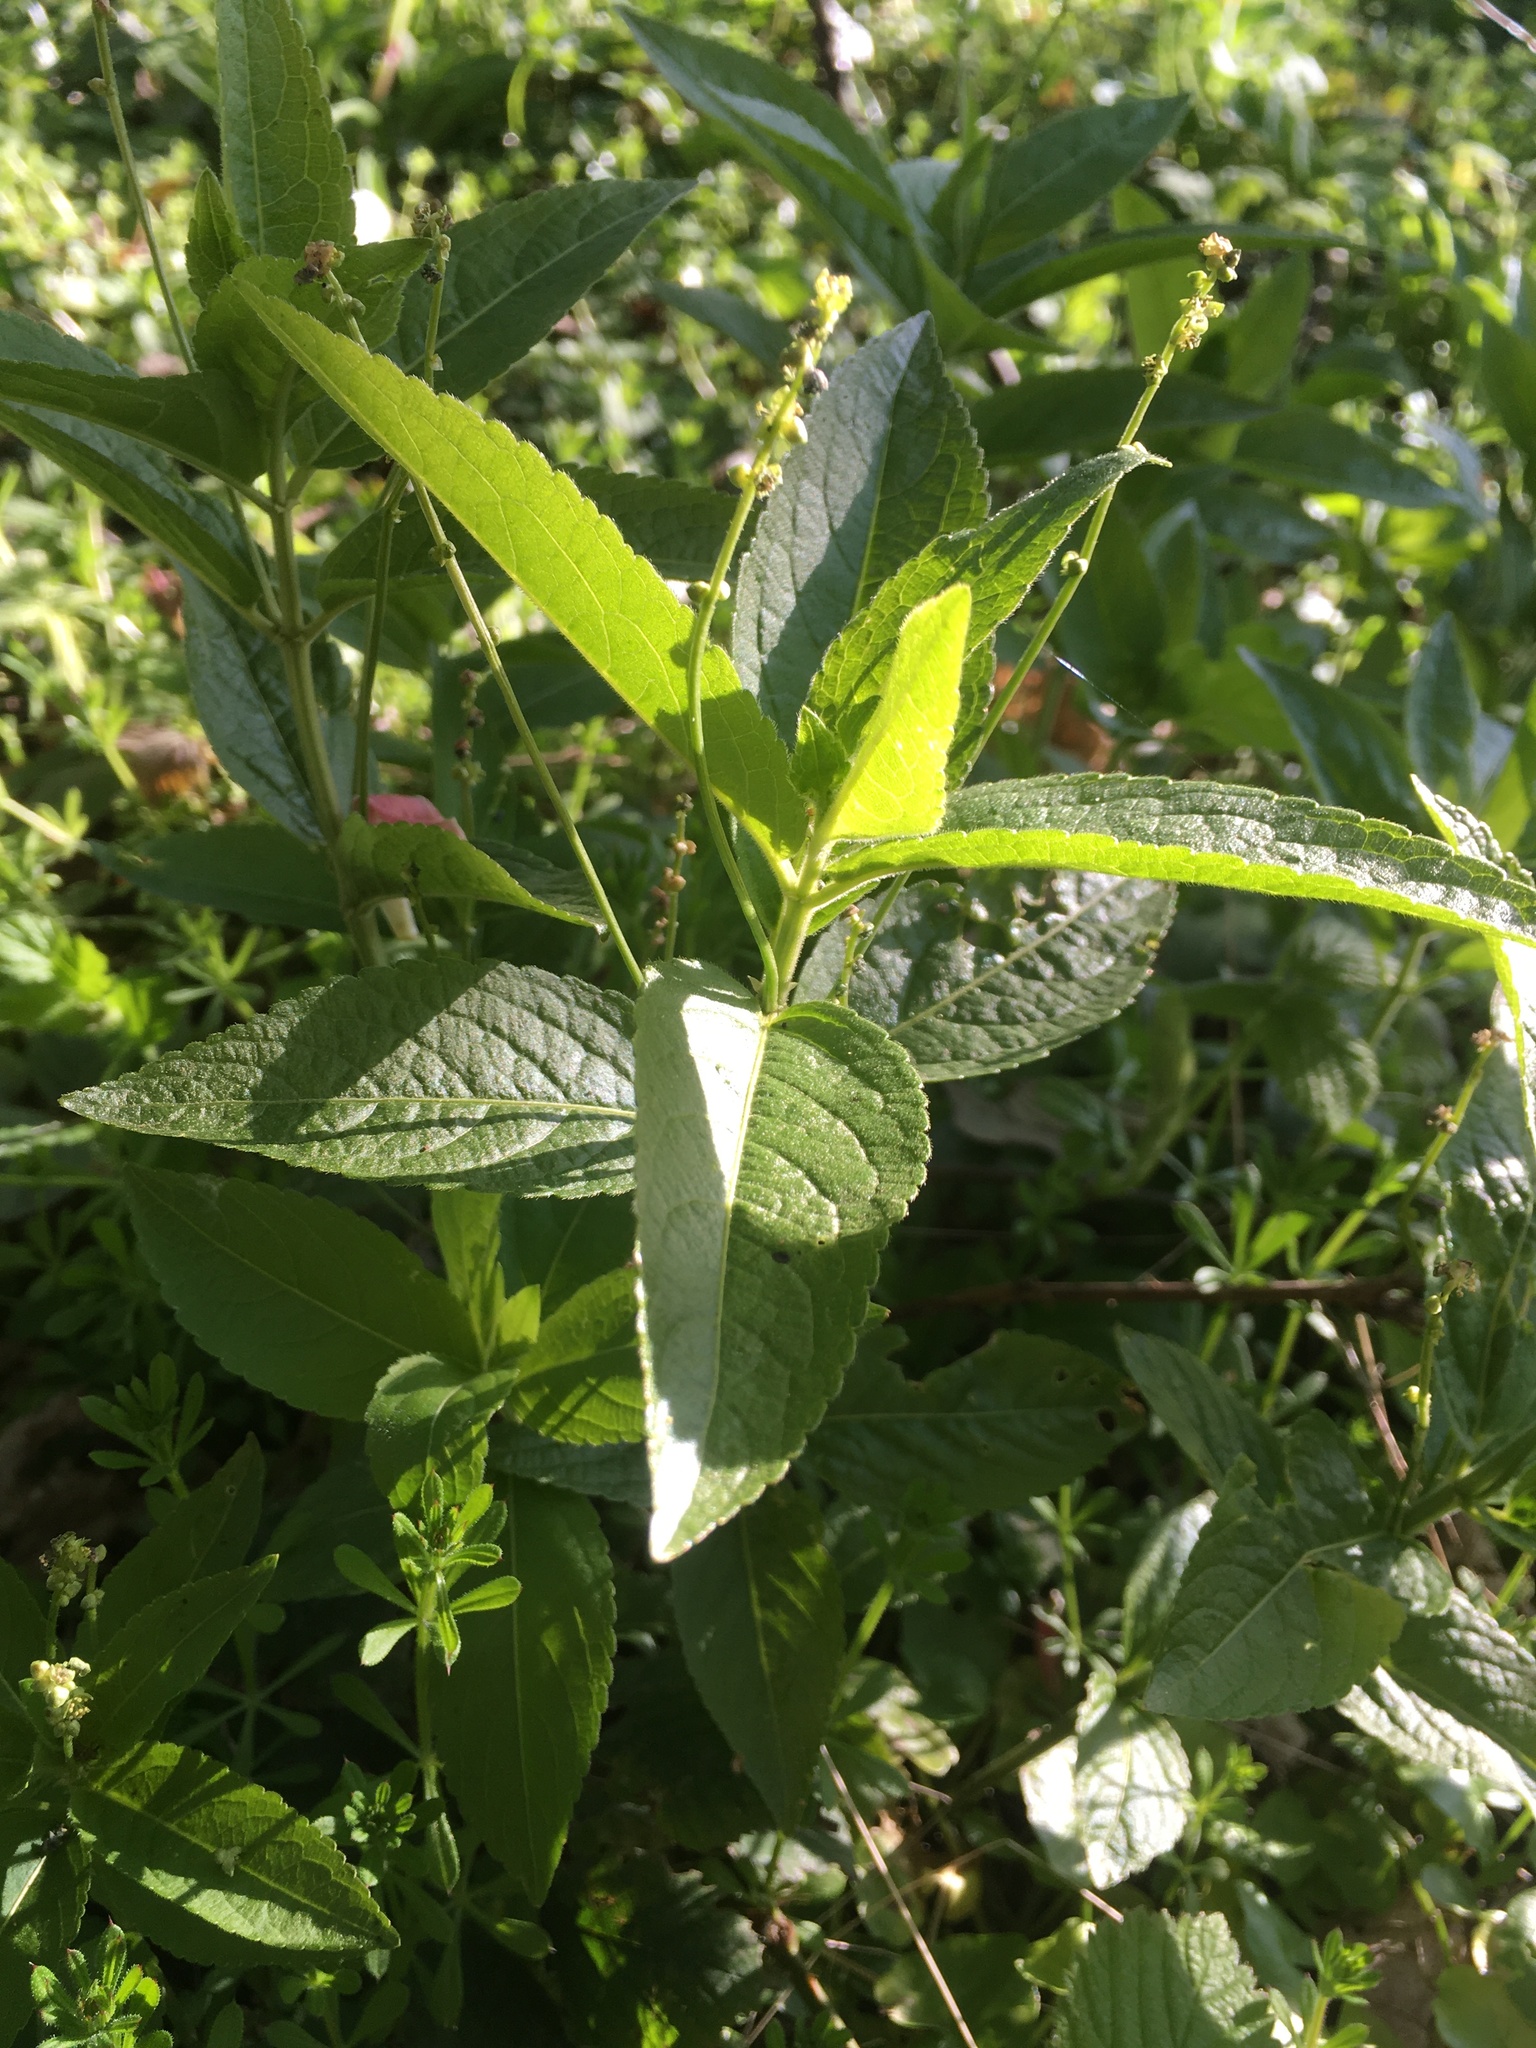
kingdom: Plantae
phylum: Tracheophyta
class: Magnoliopsida
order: Malpighiales
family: Euphorbiaceae
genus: Mercurialis
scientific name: Mercurialis perennis
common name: Dog mercury
